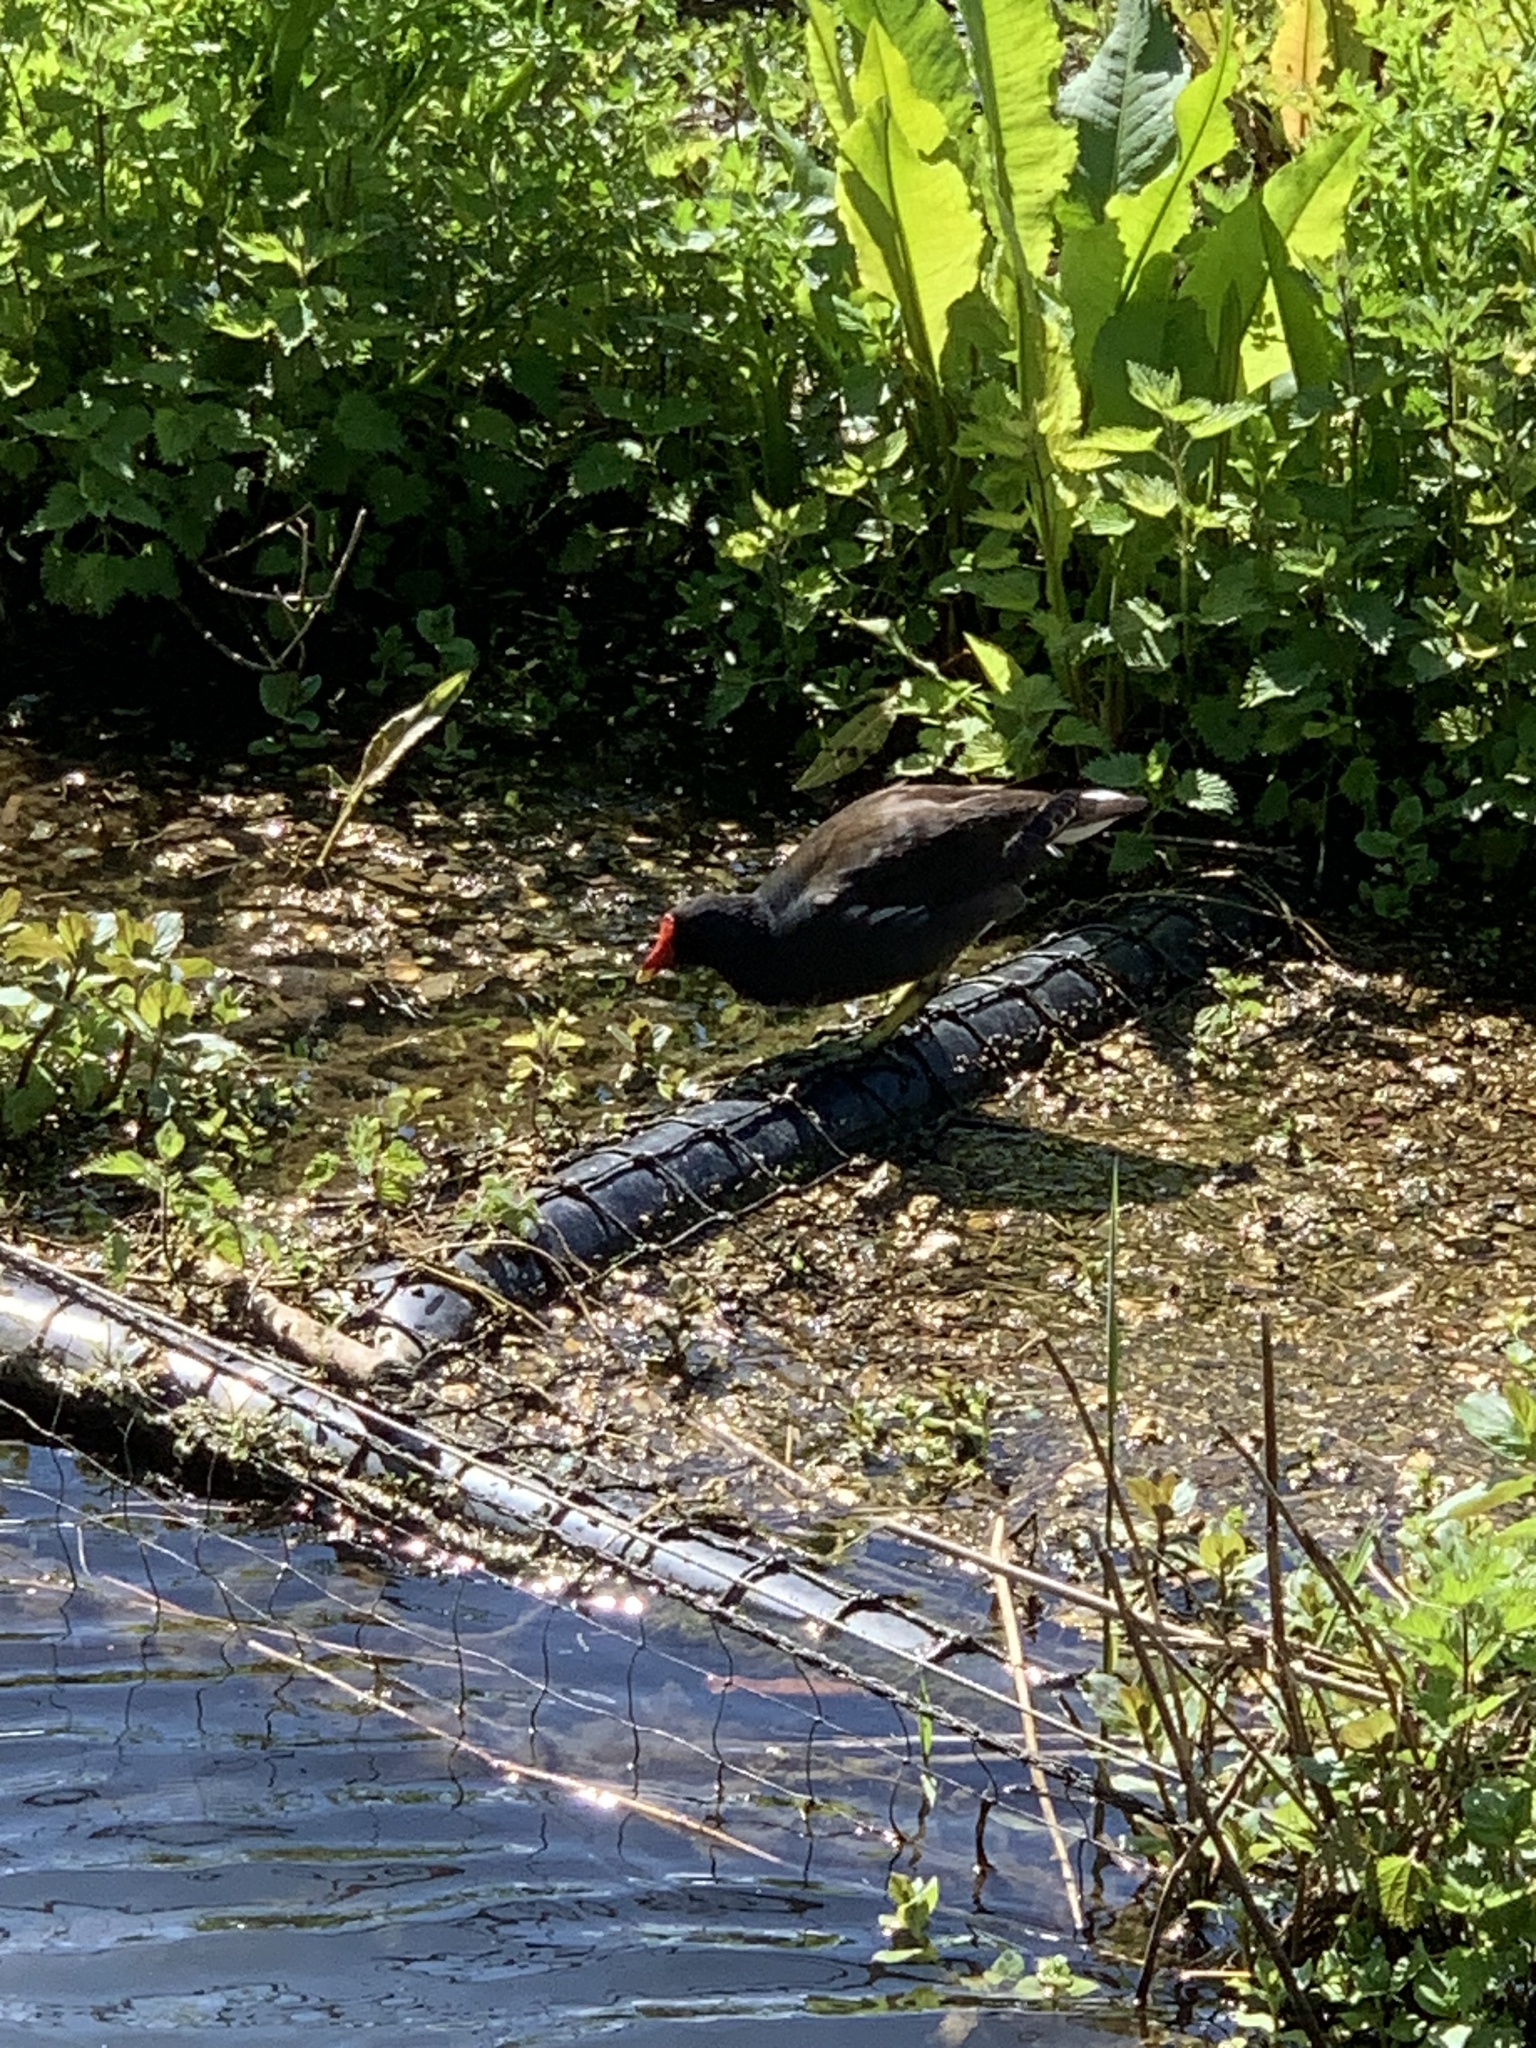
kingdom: Animalia
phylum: Chordata
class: Aves
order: Gruiformes
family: Rallidae
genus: Gallinula
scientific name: Gallinula chloropus
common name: Common moorhen
